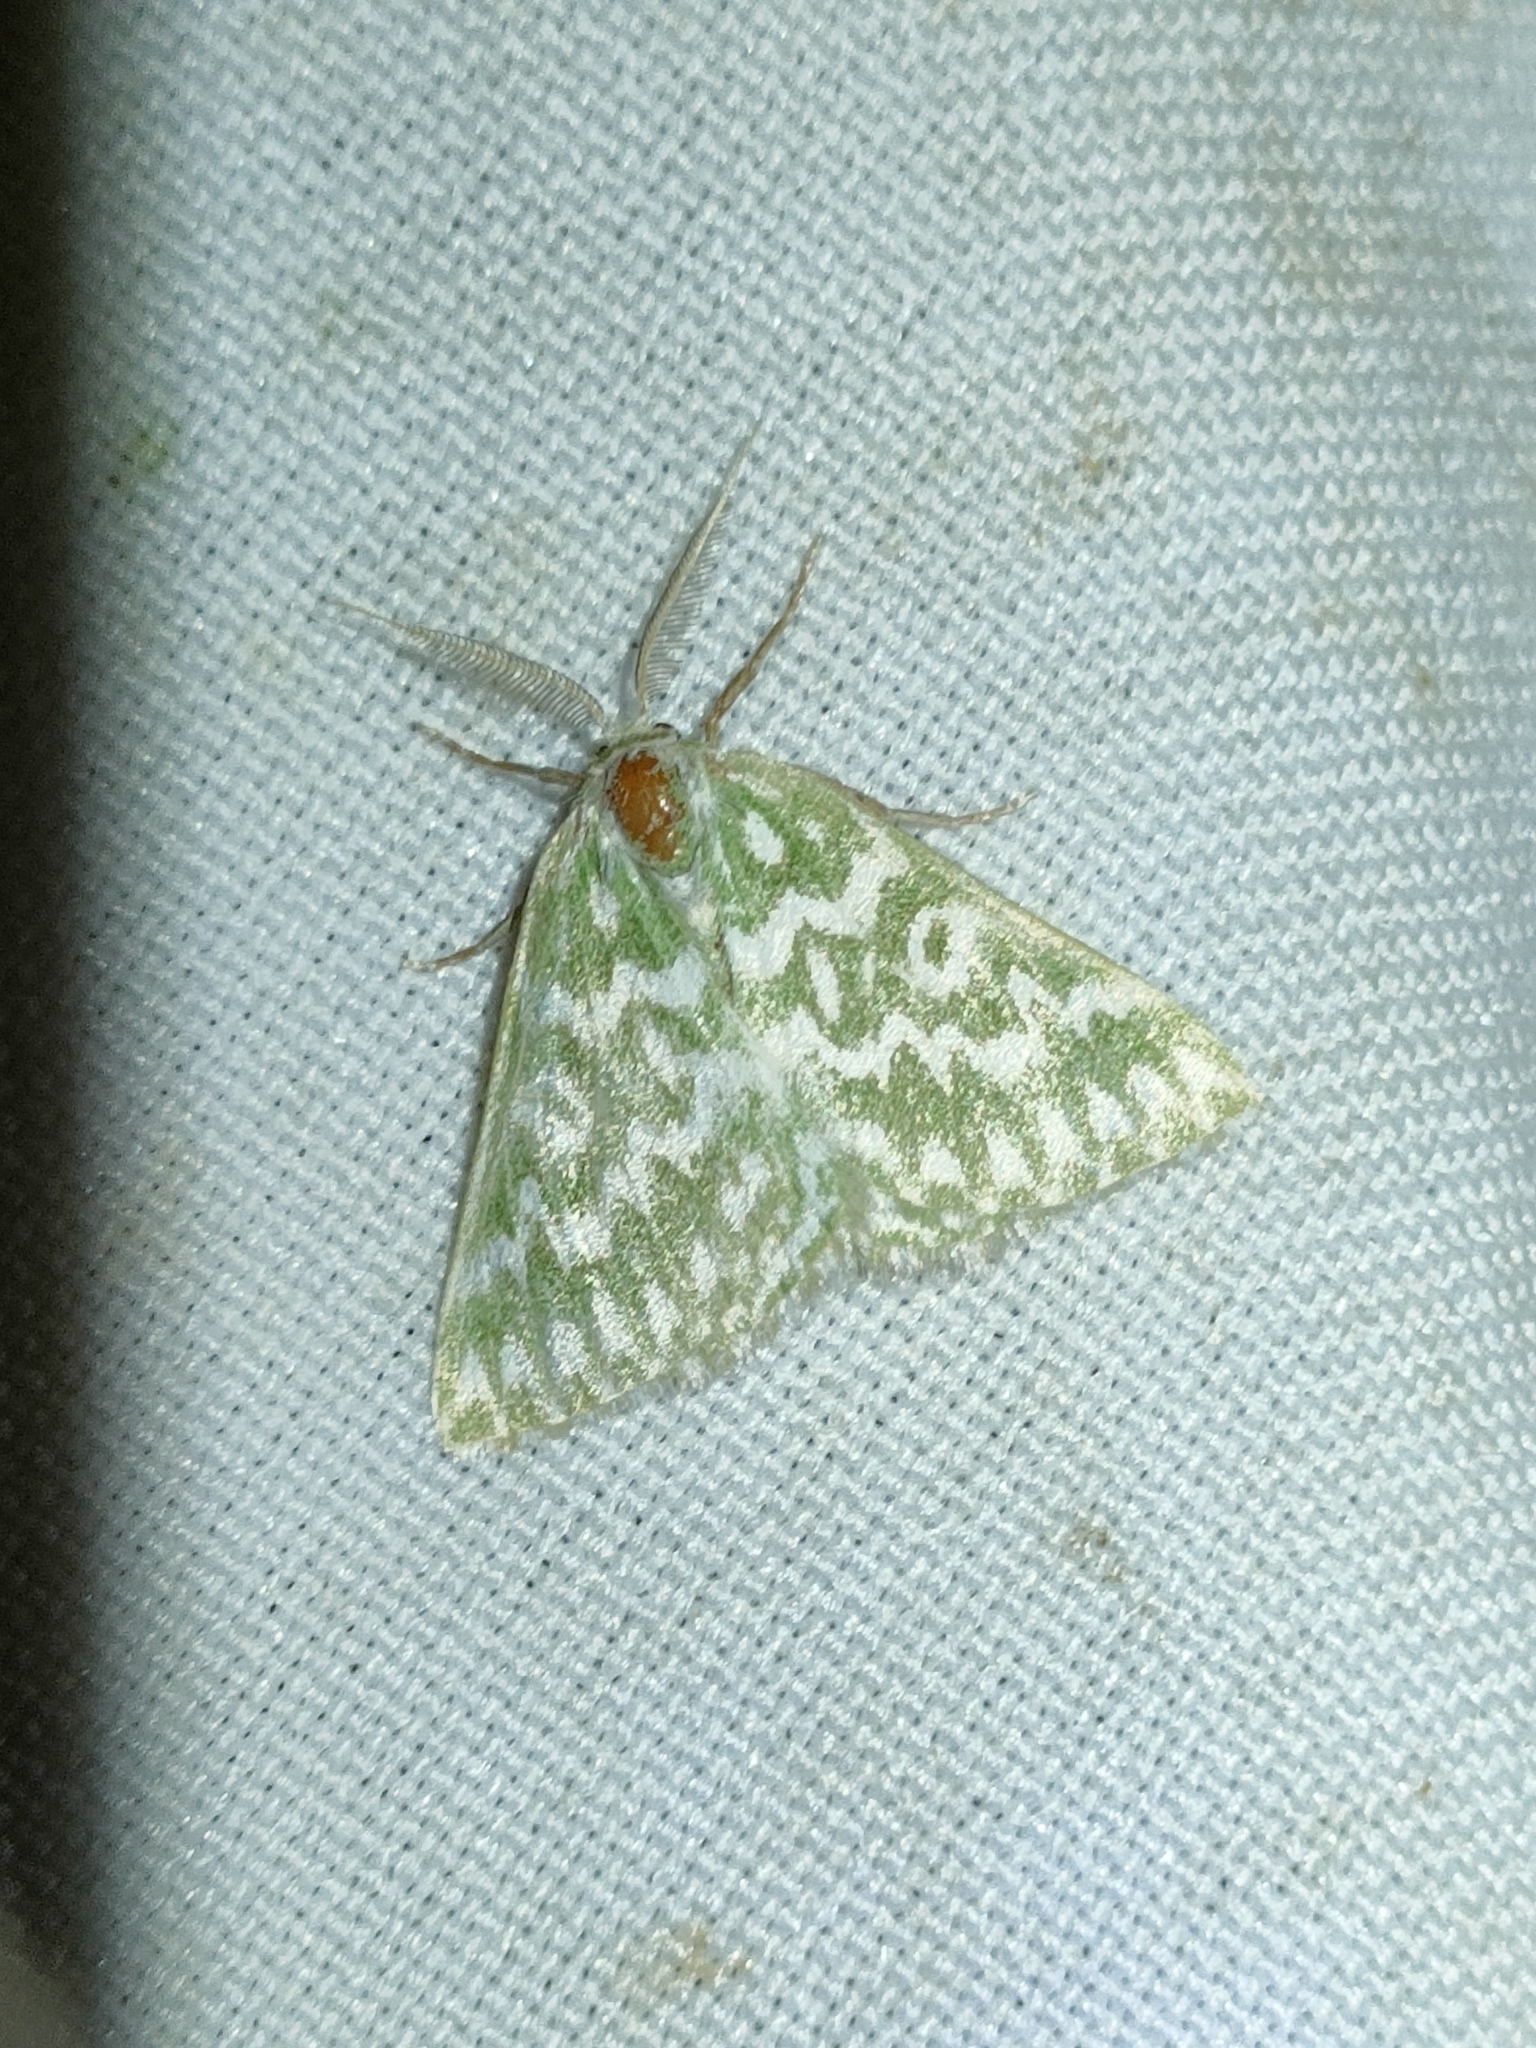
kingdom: Animalia
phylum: Arthropoda
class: Insecta
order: Lepidoptera
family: Geometridae
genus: Thetidia
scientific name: Thetidia plusiaria
